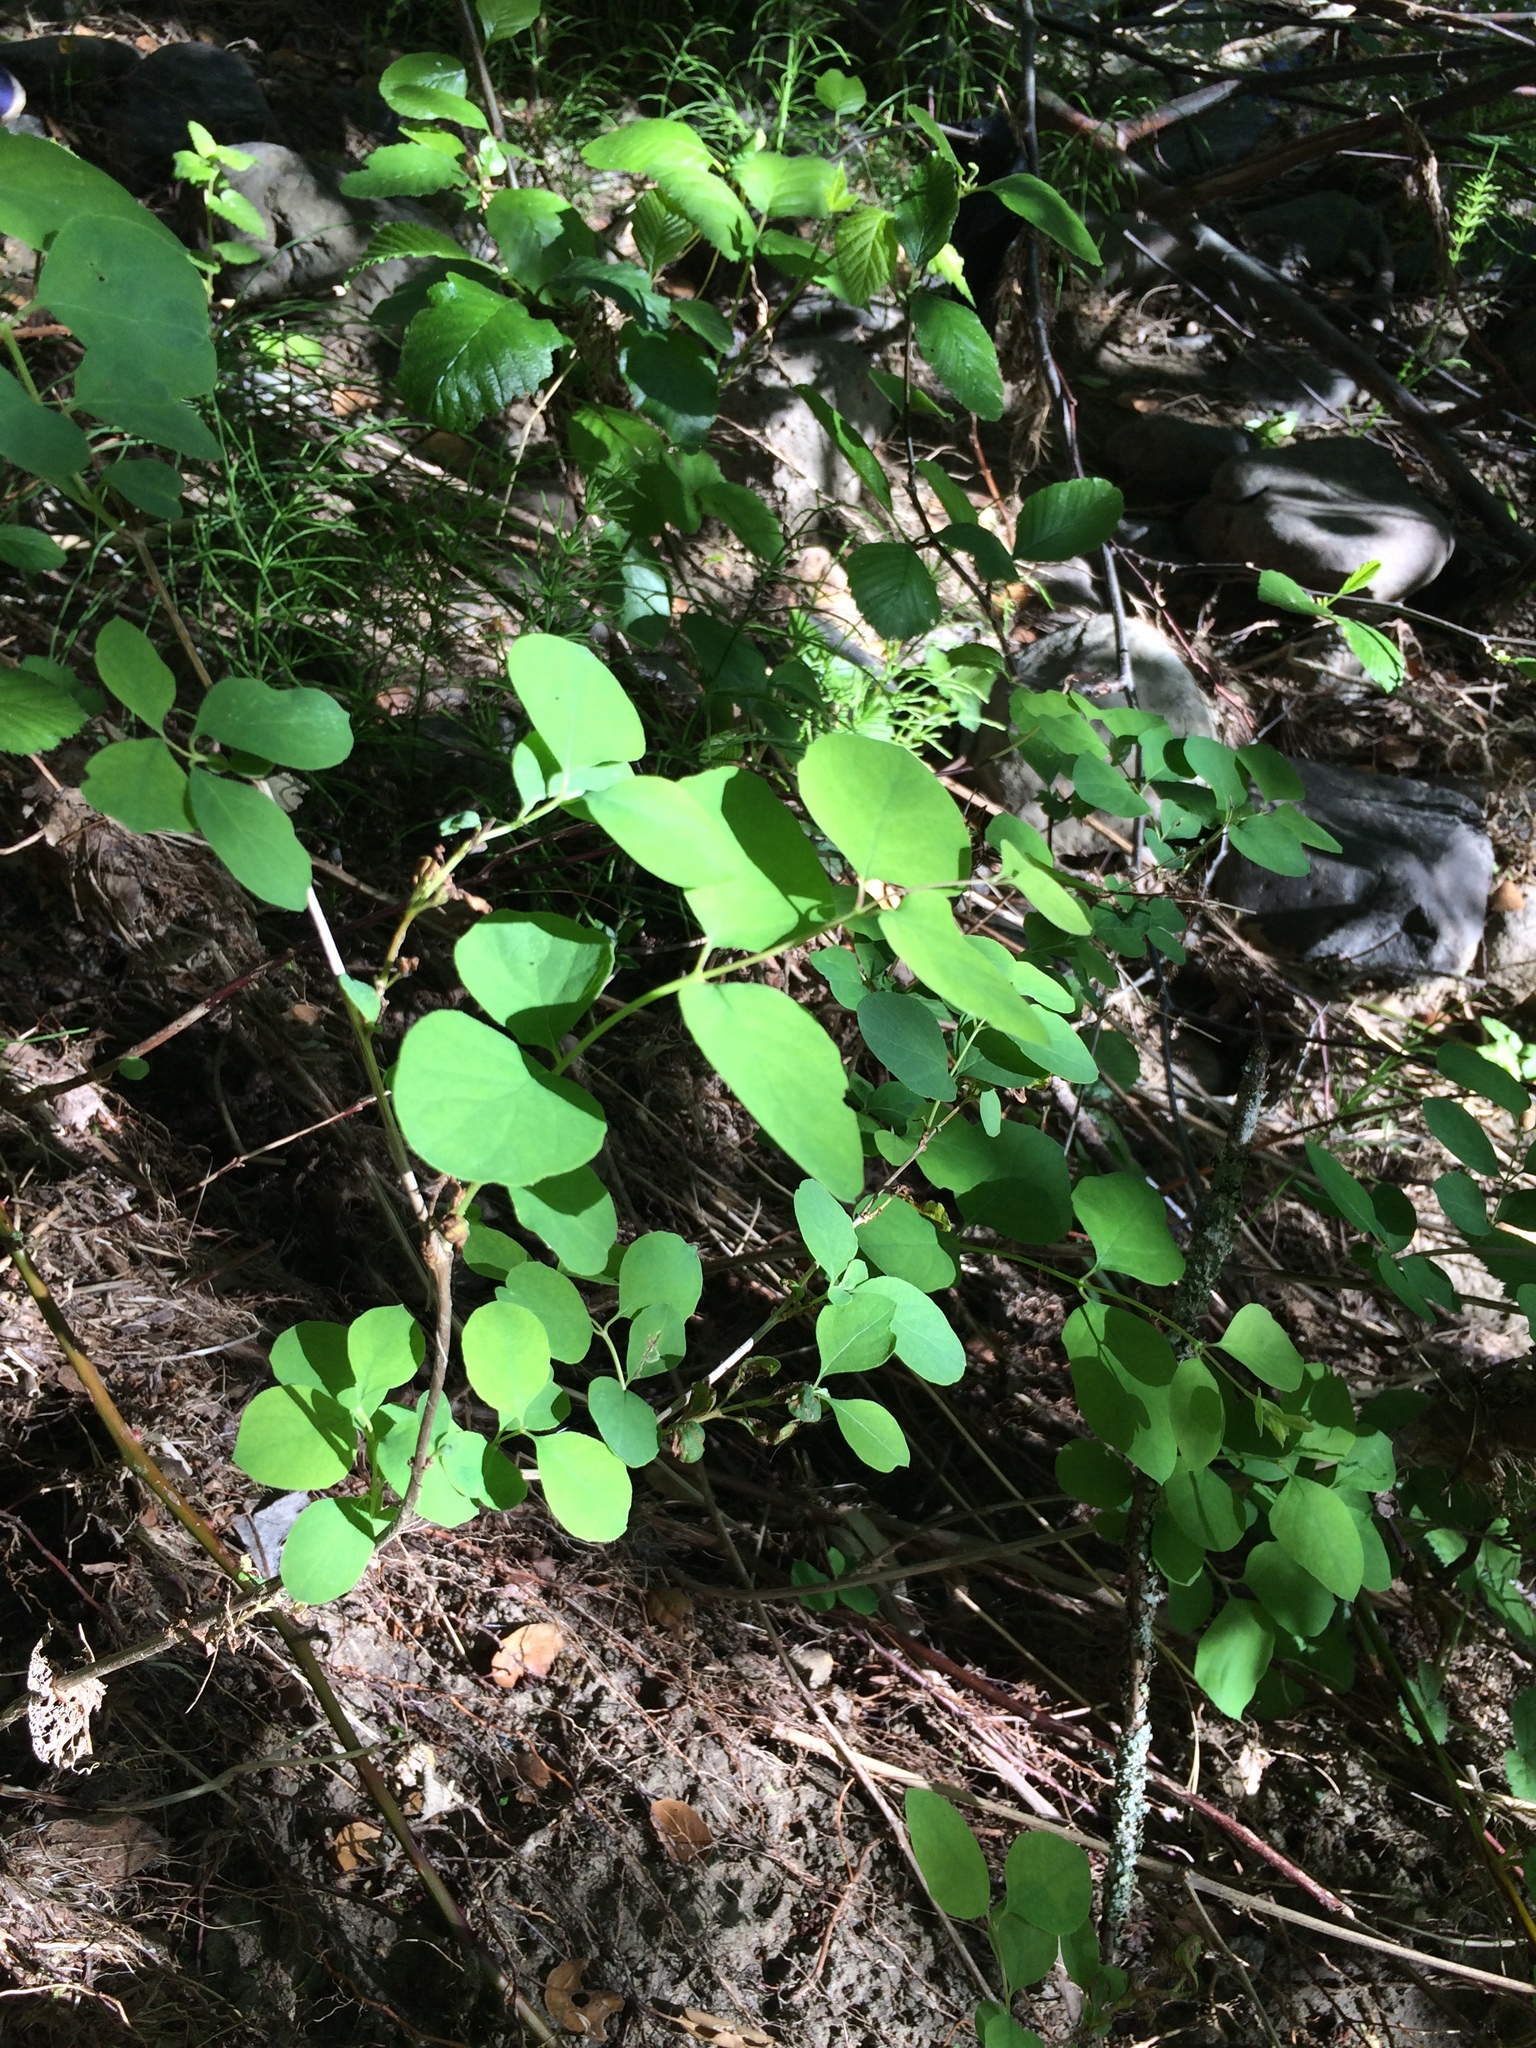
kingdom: Plantae
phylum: Tracheophyta
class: Magnoliopsida
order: Dipsacales
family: Caprifoliaceae
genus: Symphoricarpos
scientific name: Symphoricarpos albus
